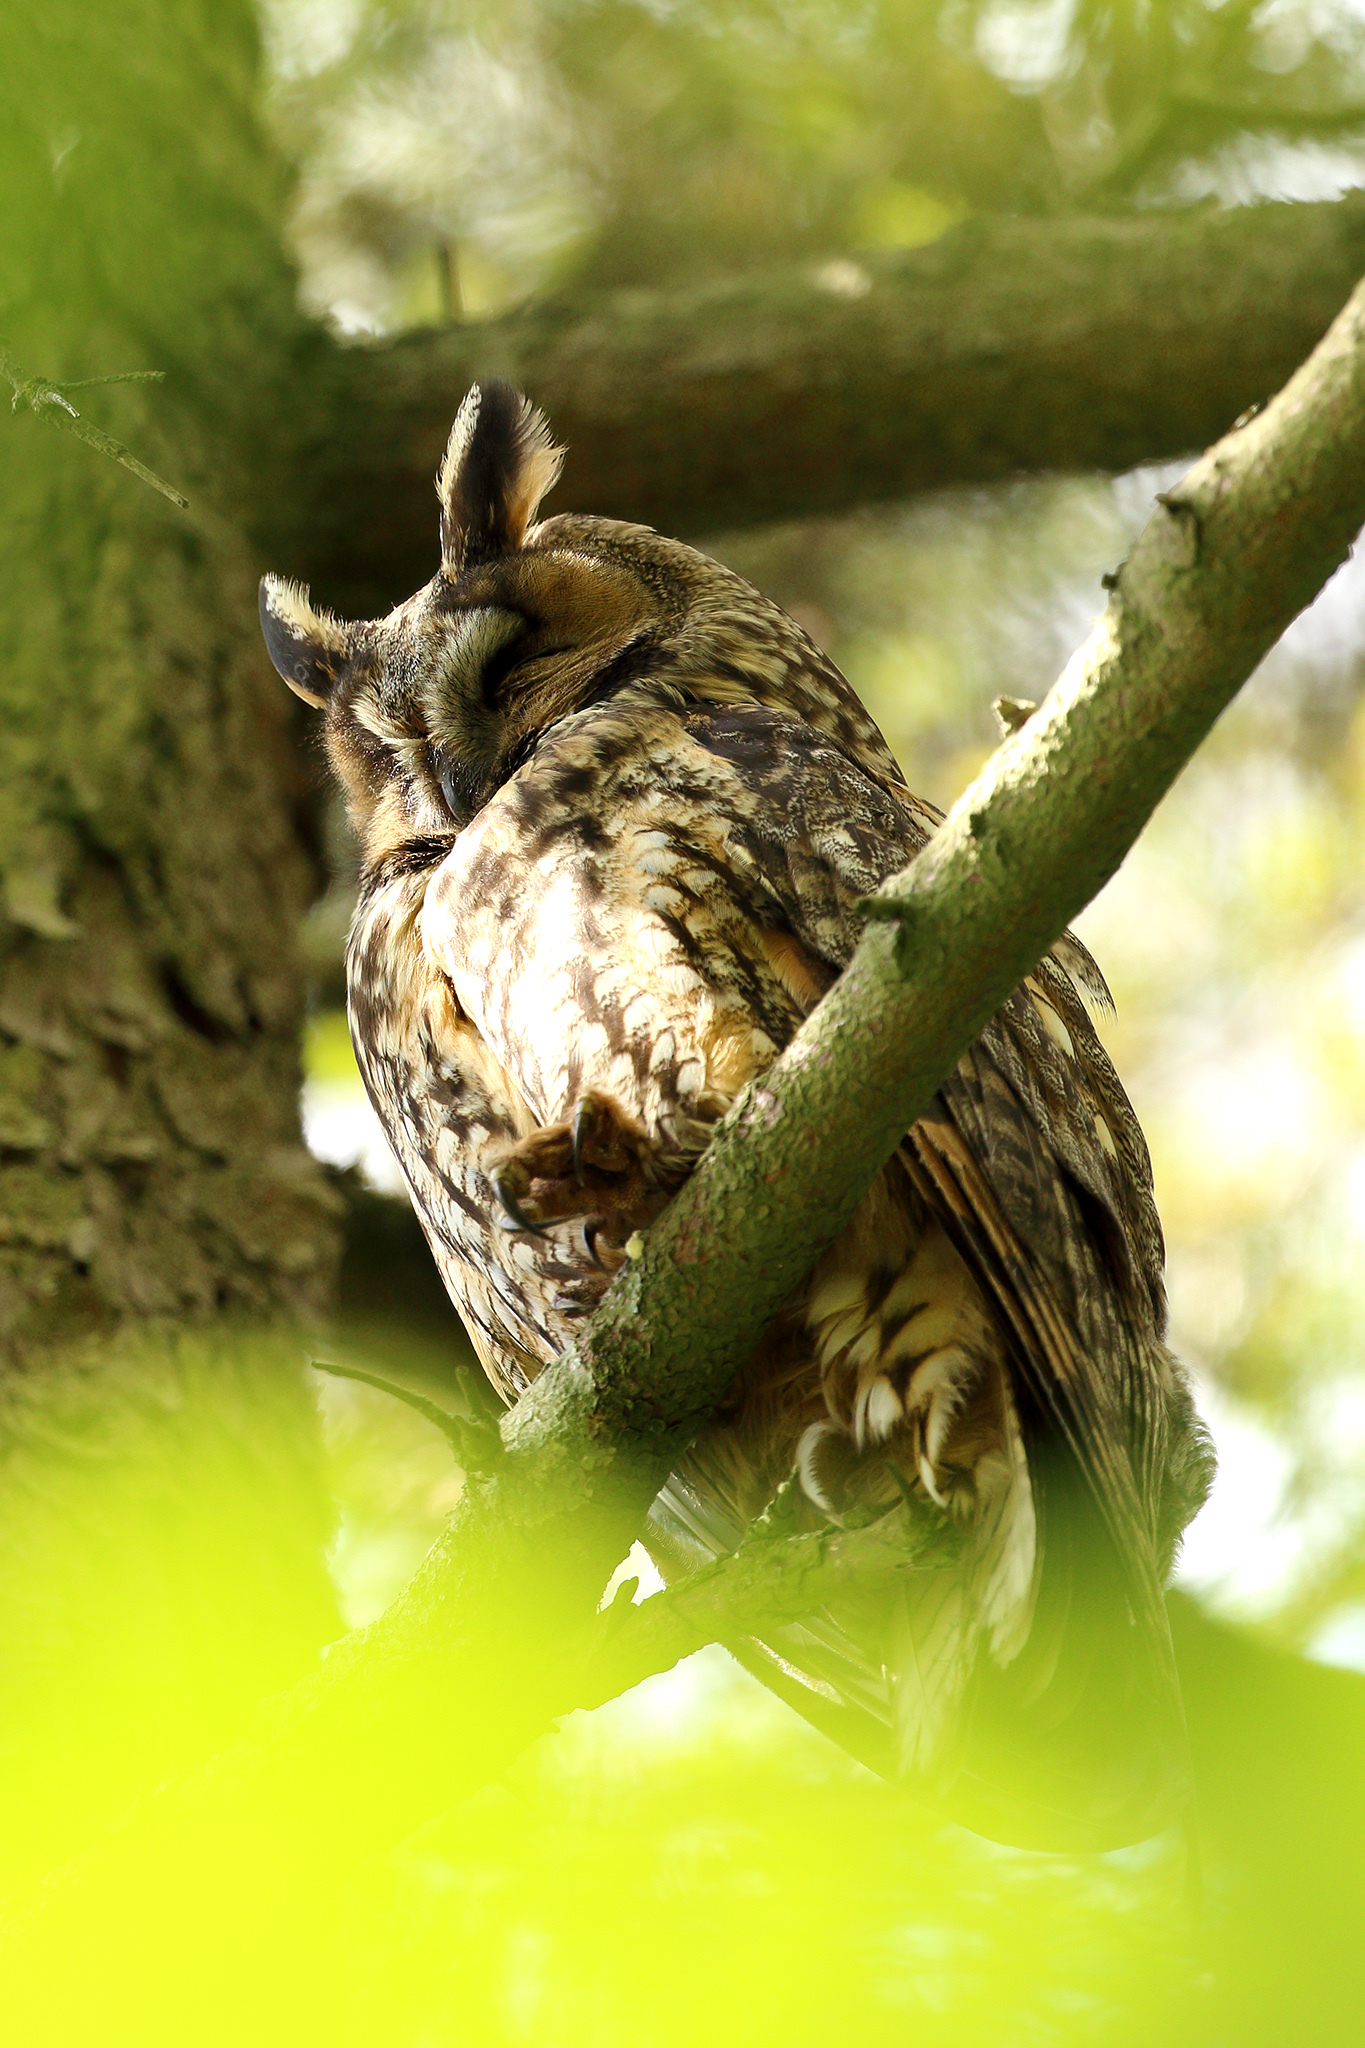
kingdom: Animalia
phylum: Chordata
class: Aves
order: Strigiformes
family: Strigidae
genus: Asio
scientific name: Asio otus
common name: Long-eared owl
